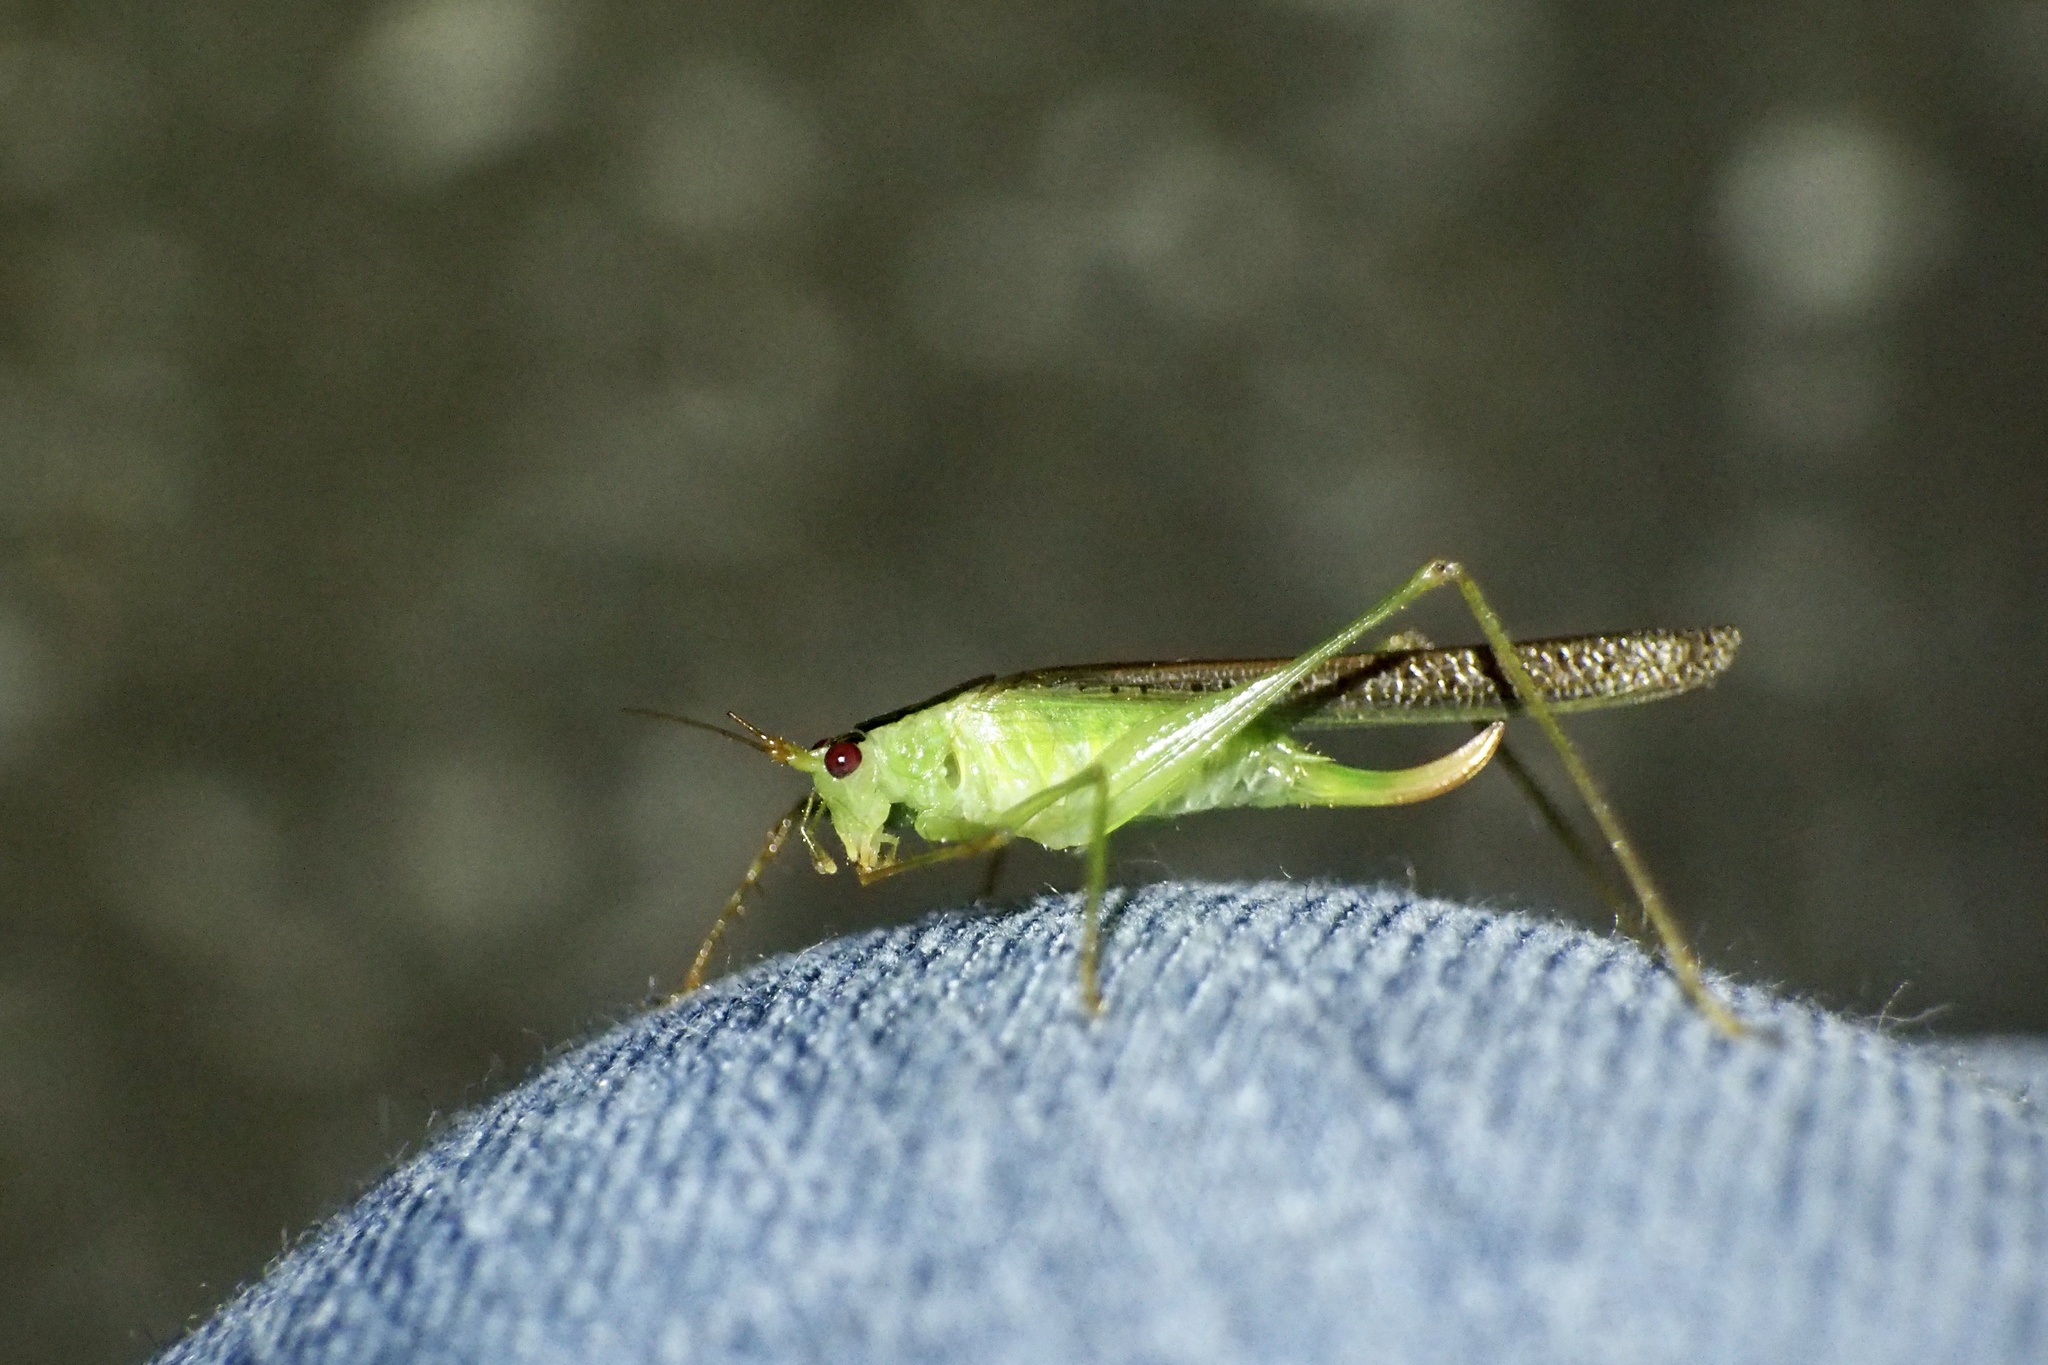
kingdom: Animalia
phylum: Arthropoda
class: Insecta
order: Orthoptera
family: Tettigoniidae
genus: Xiphidiopsis
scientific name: Xiphidiopsis subpunctata
